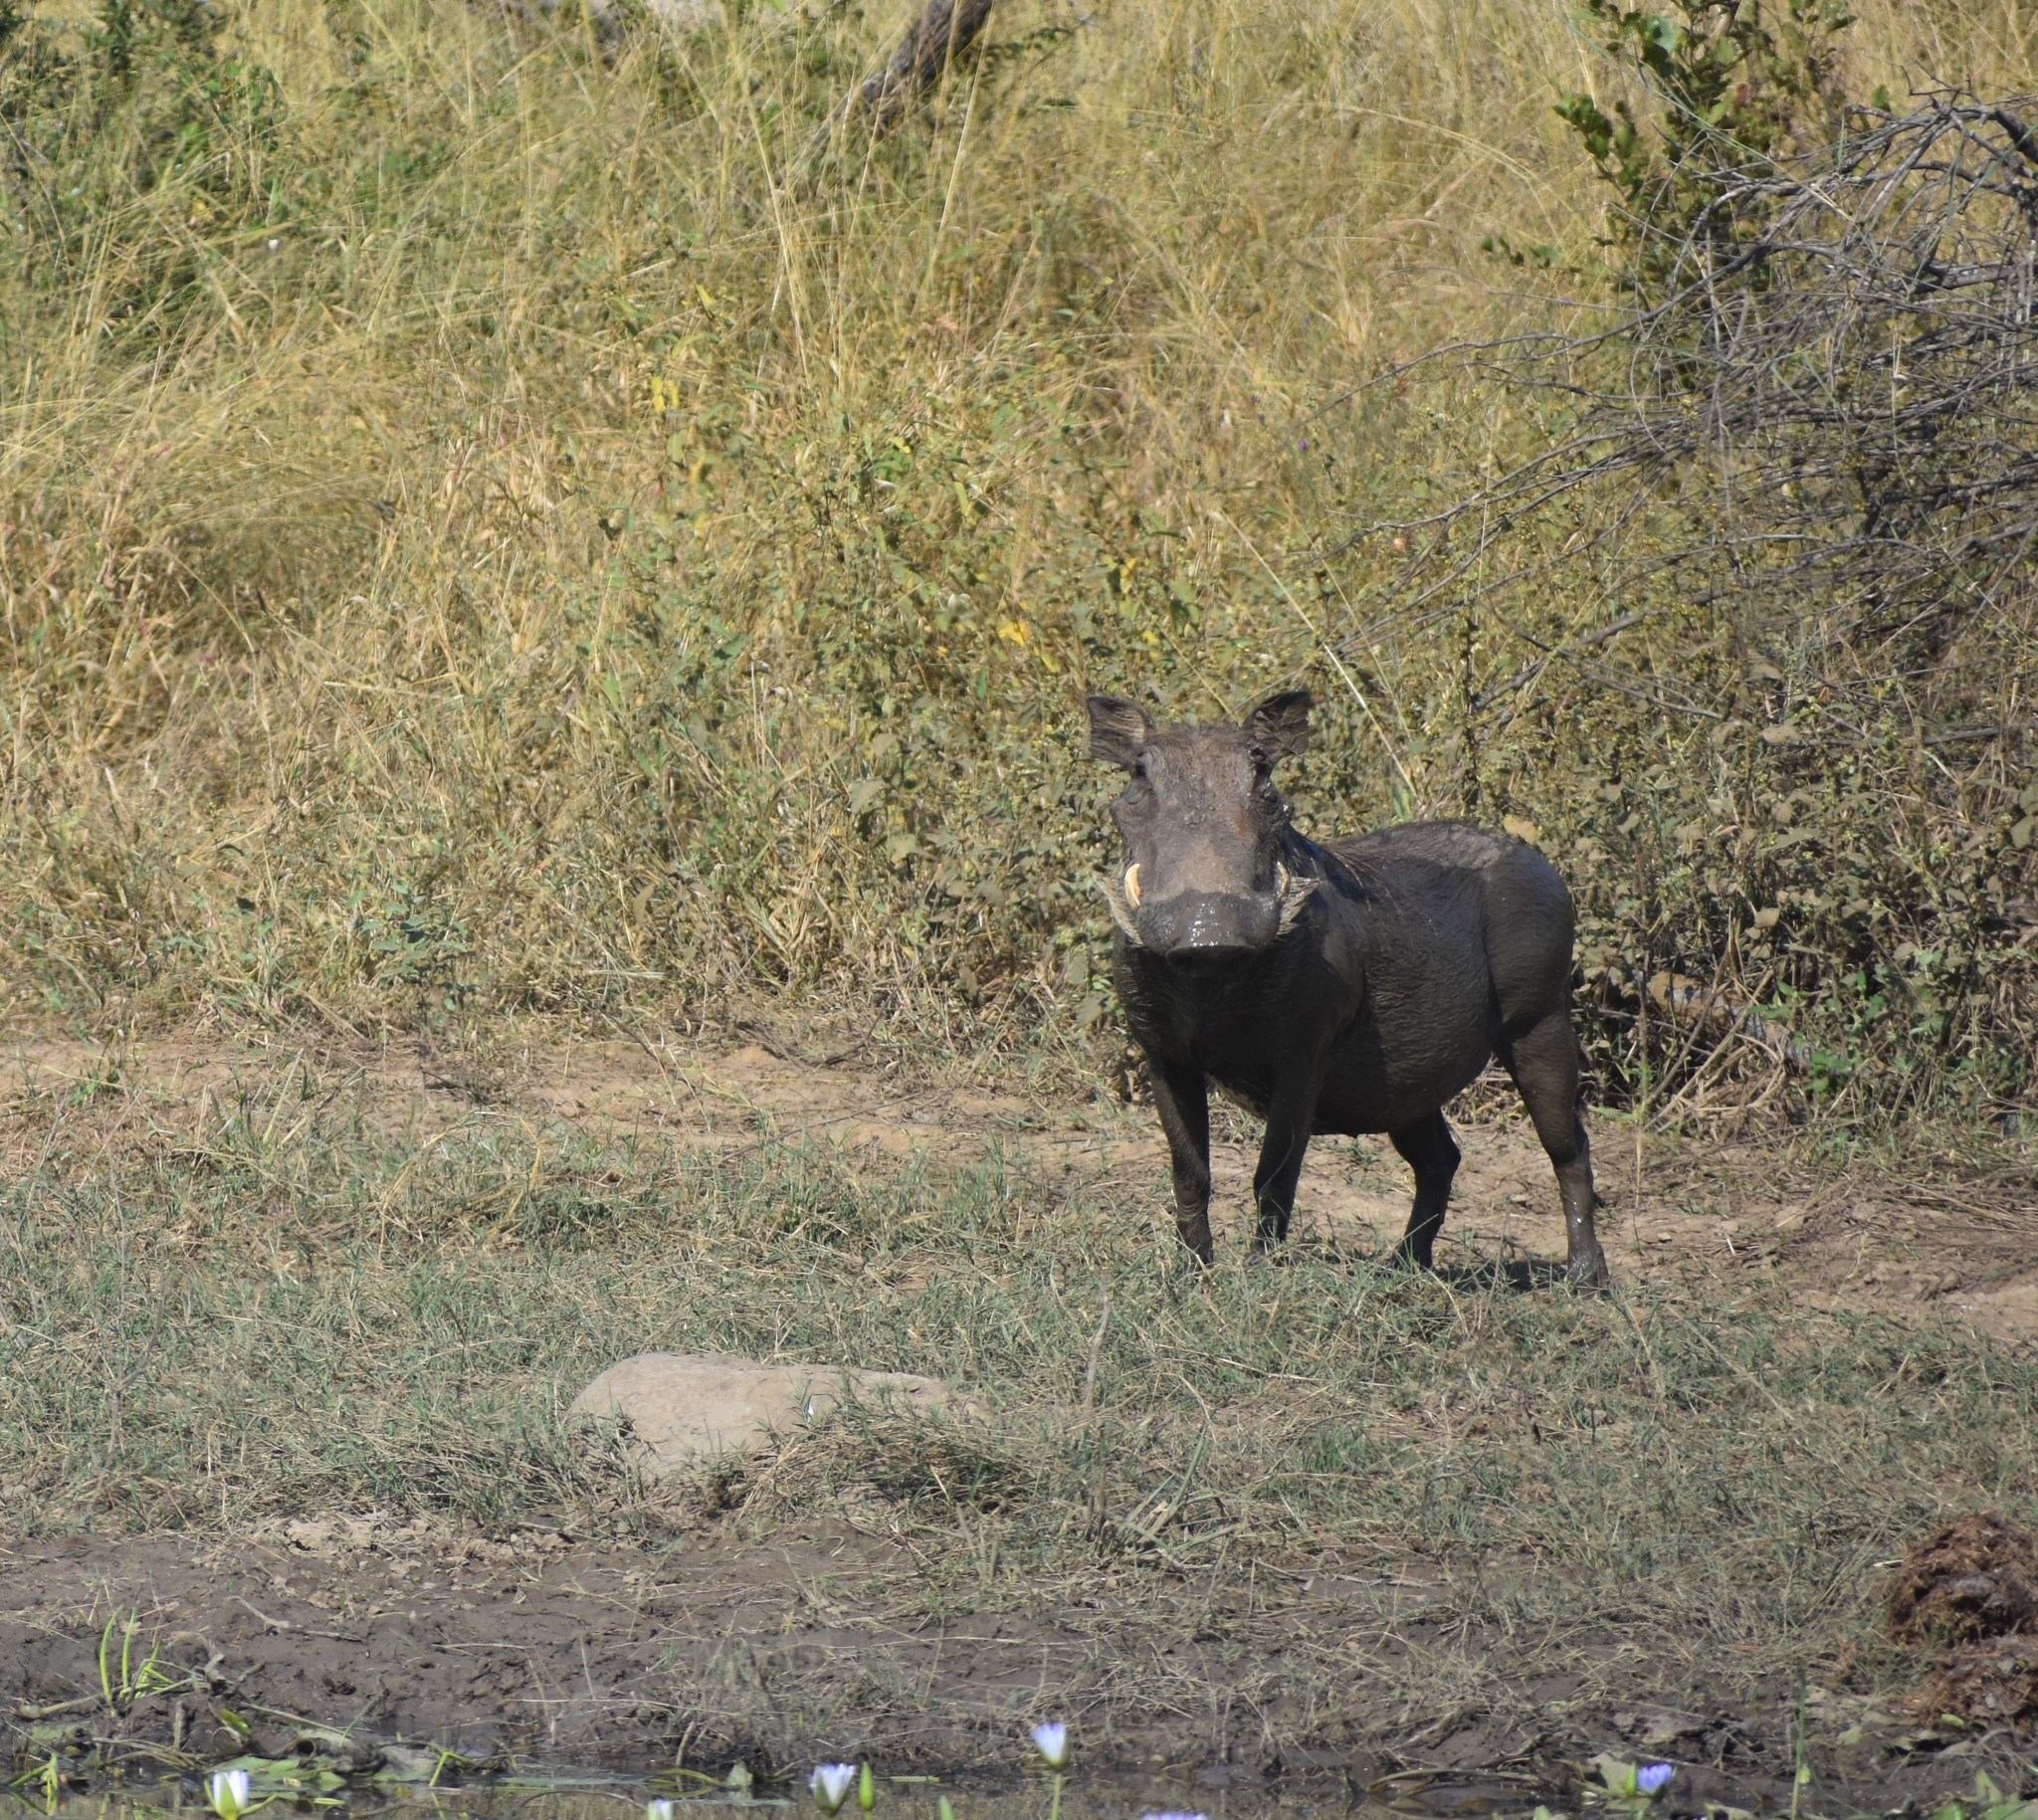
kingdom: Animalia
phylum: Chordata
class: Mammalia
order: Artiodactyla
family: Suidae
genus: Phacochoerus
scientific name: Phacochoerus africanus
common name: Common warthog
